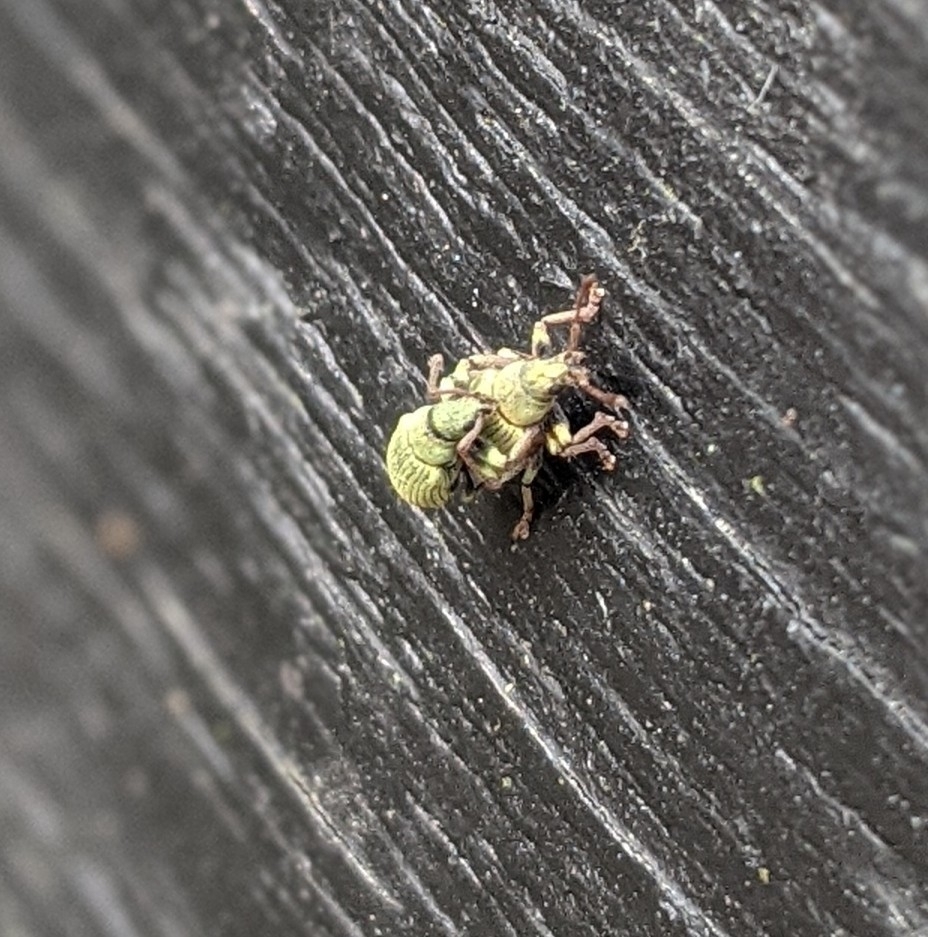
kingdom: Animalia
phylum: Arthropoda
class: Insecta
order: Coleoptera
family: Curculionidae
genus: Phyllobius
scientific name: Phyllobius maculicornis
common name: Green leaf weevil
